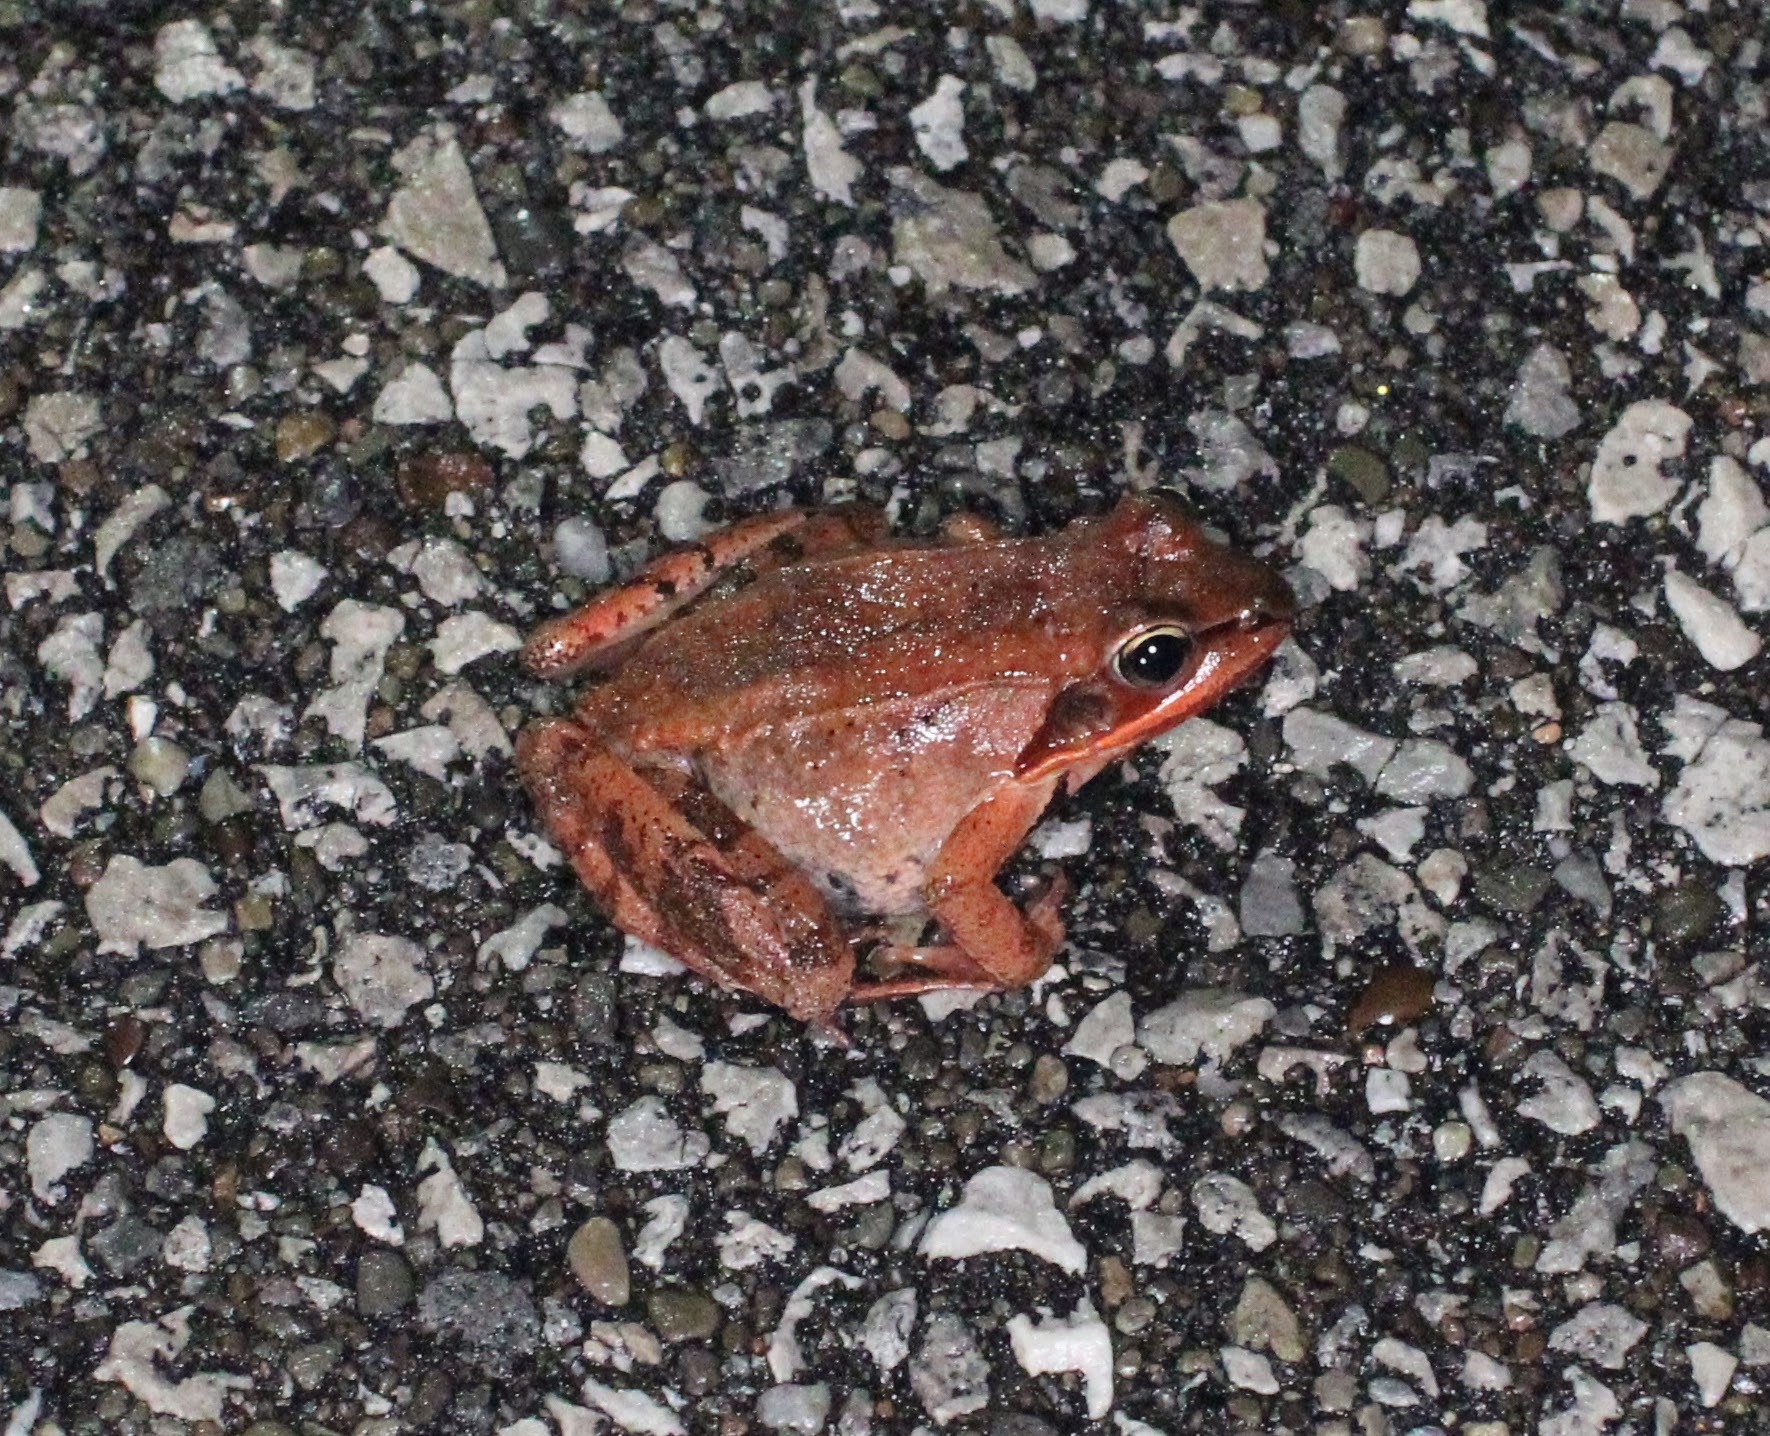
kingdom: Animalia
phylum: Chordata
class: Amphibia
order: Anura
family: Ranidae
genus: Lithobates
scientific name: Lithobates sylvaticus
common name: Wood frog
